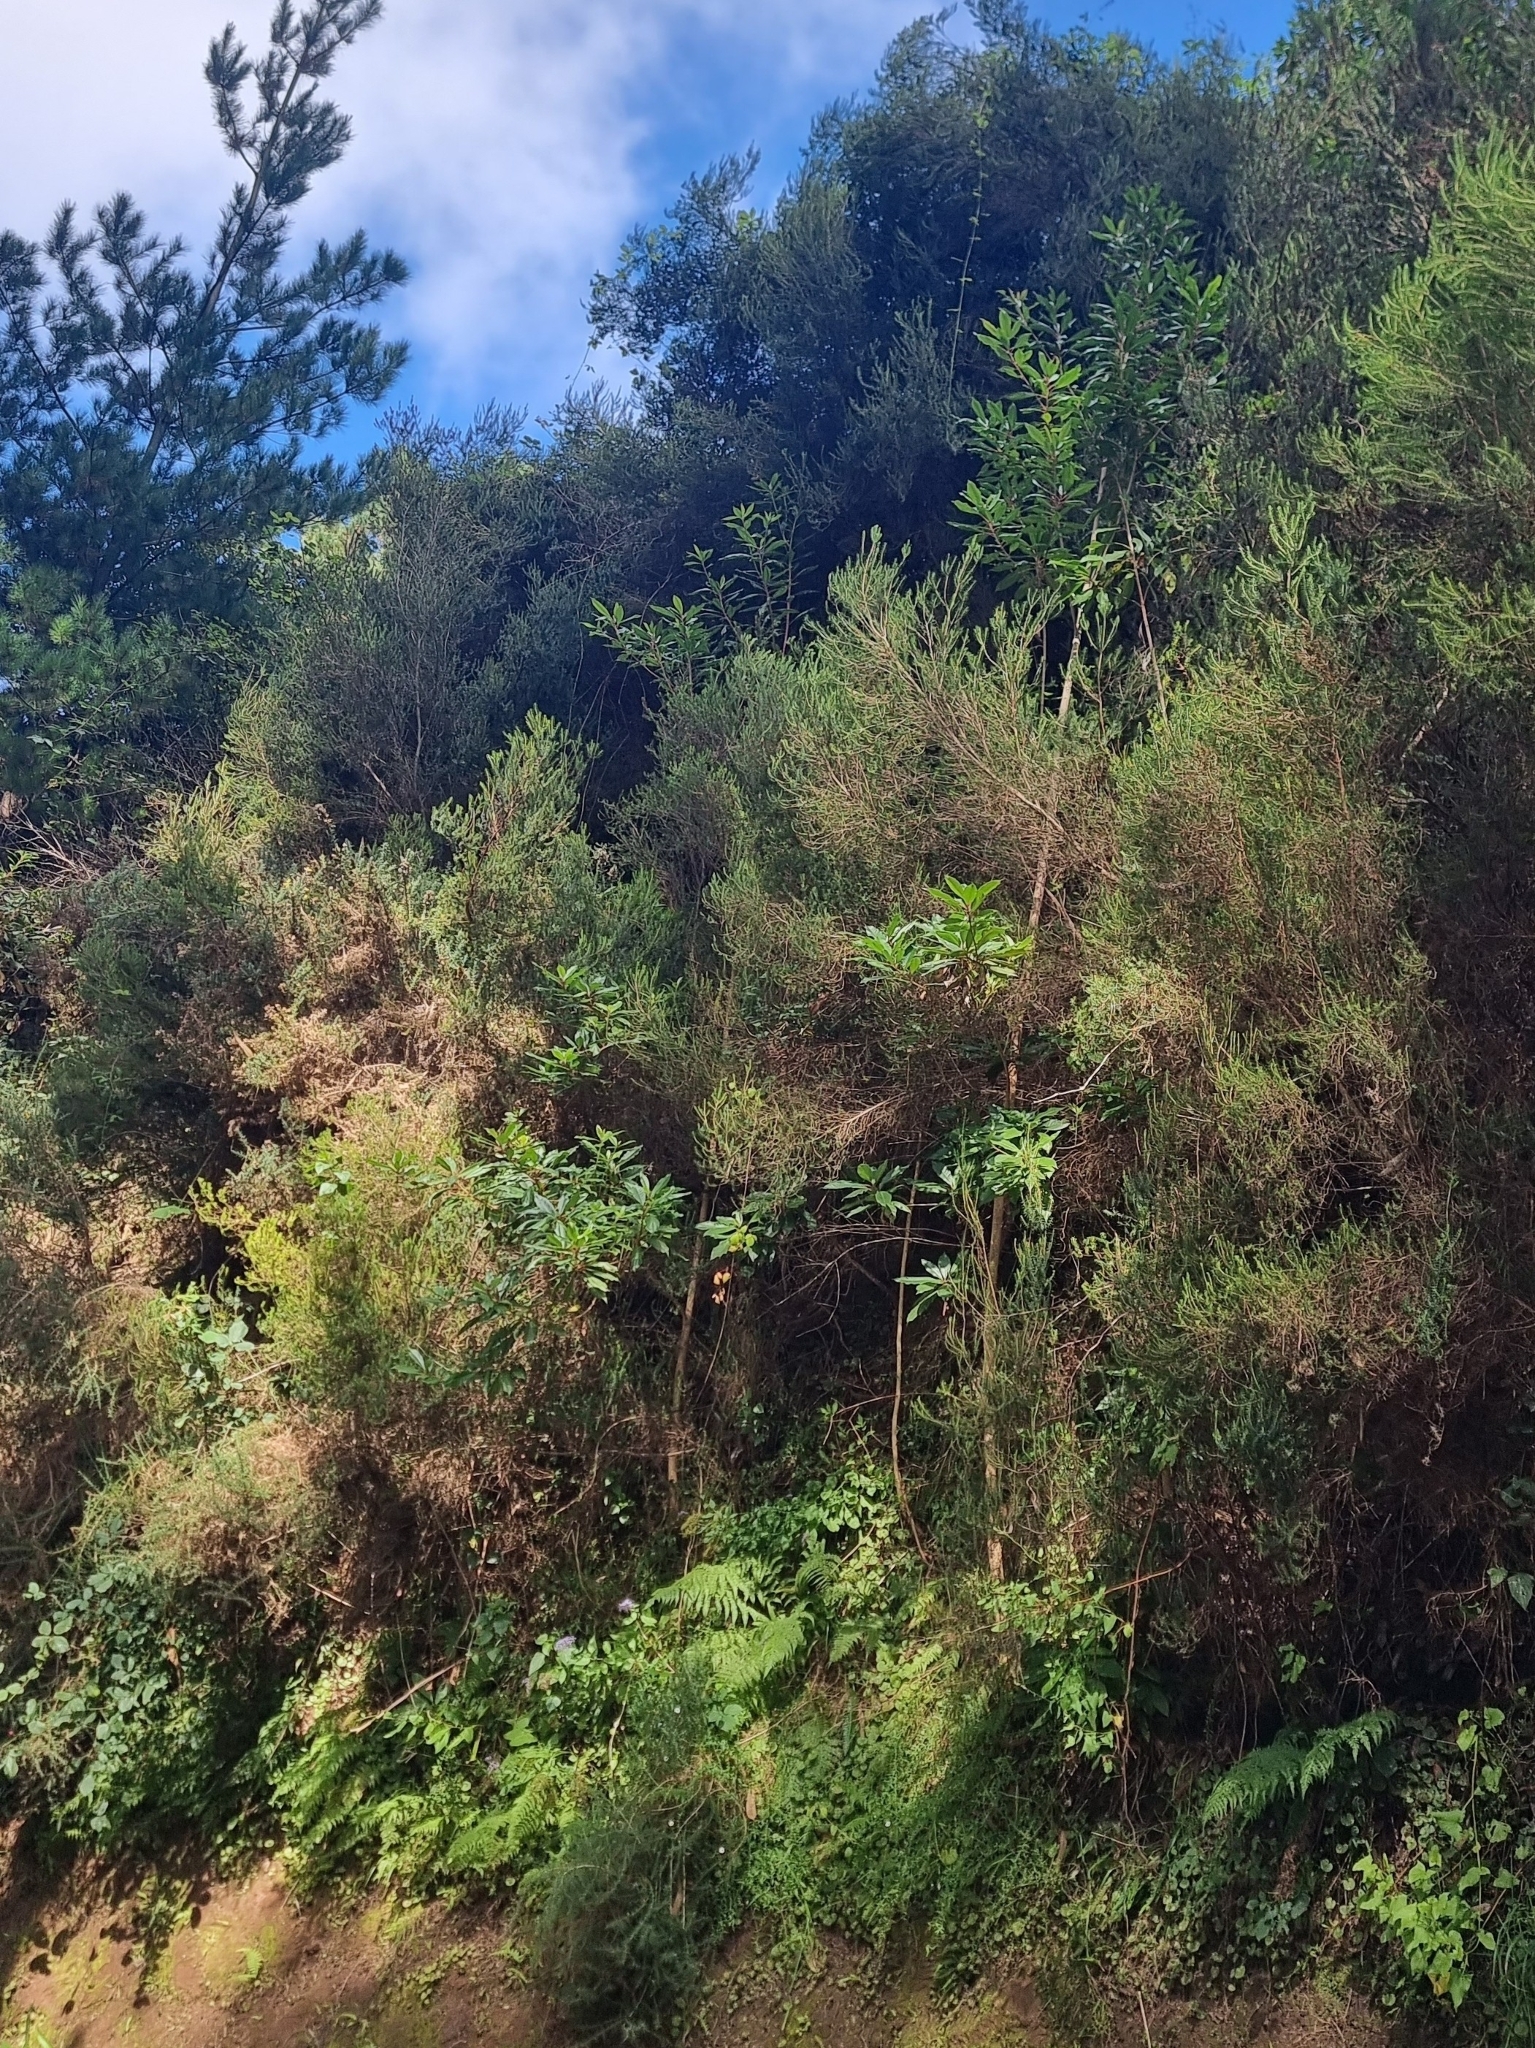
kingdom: Plantae
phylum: Tracheophyta
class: Magnoliopsida
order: Ericales
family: Clethraceae
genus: Clethra
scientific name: Clethra arborea
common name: Lily-of-the-valley-tree
